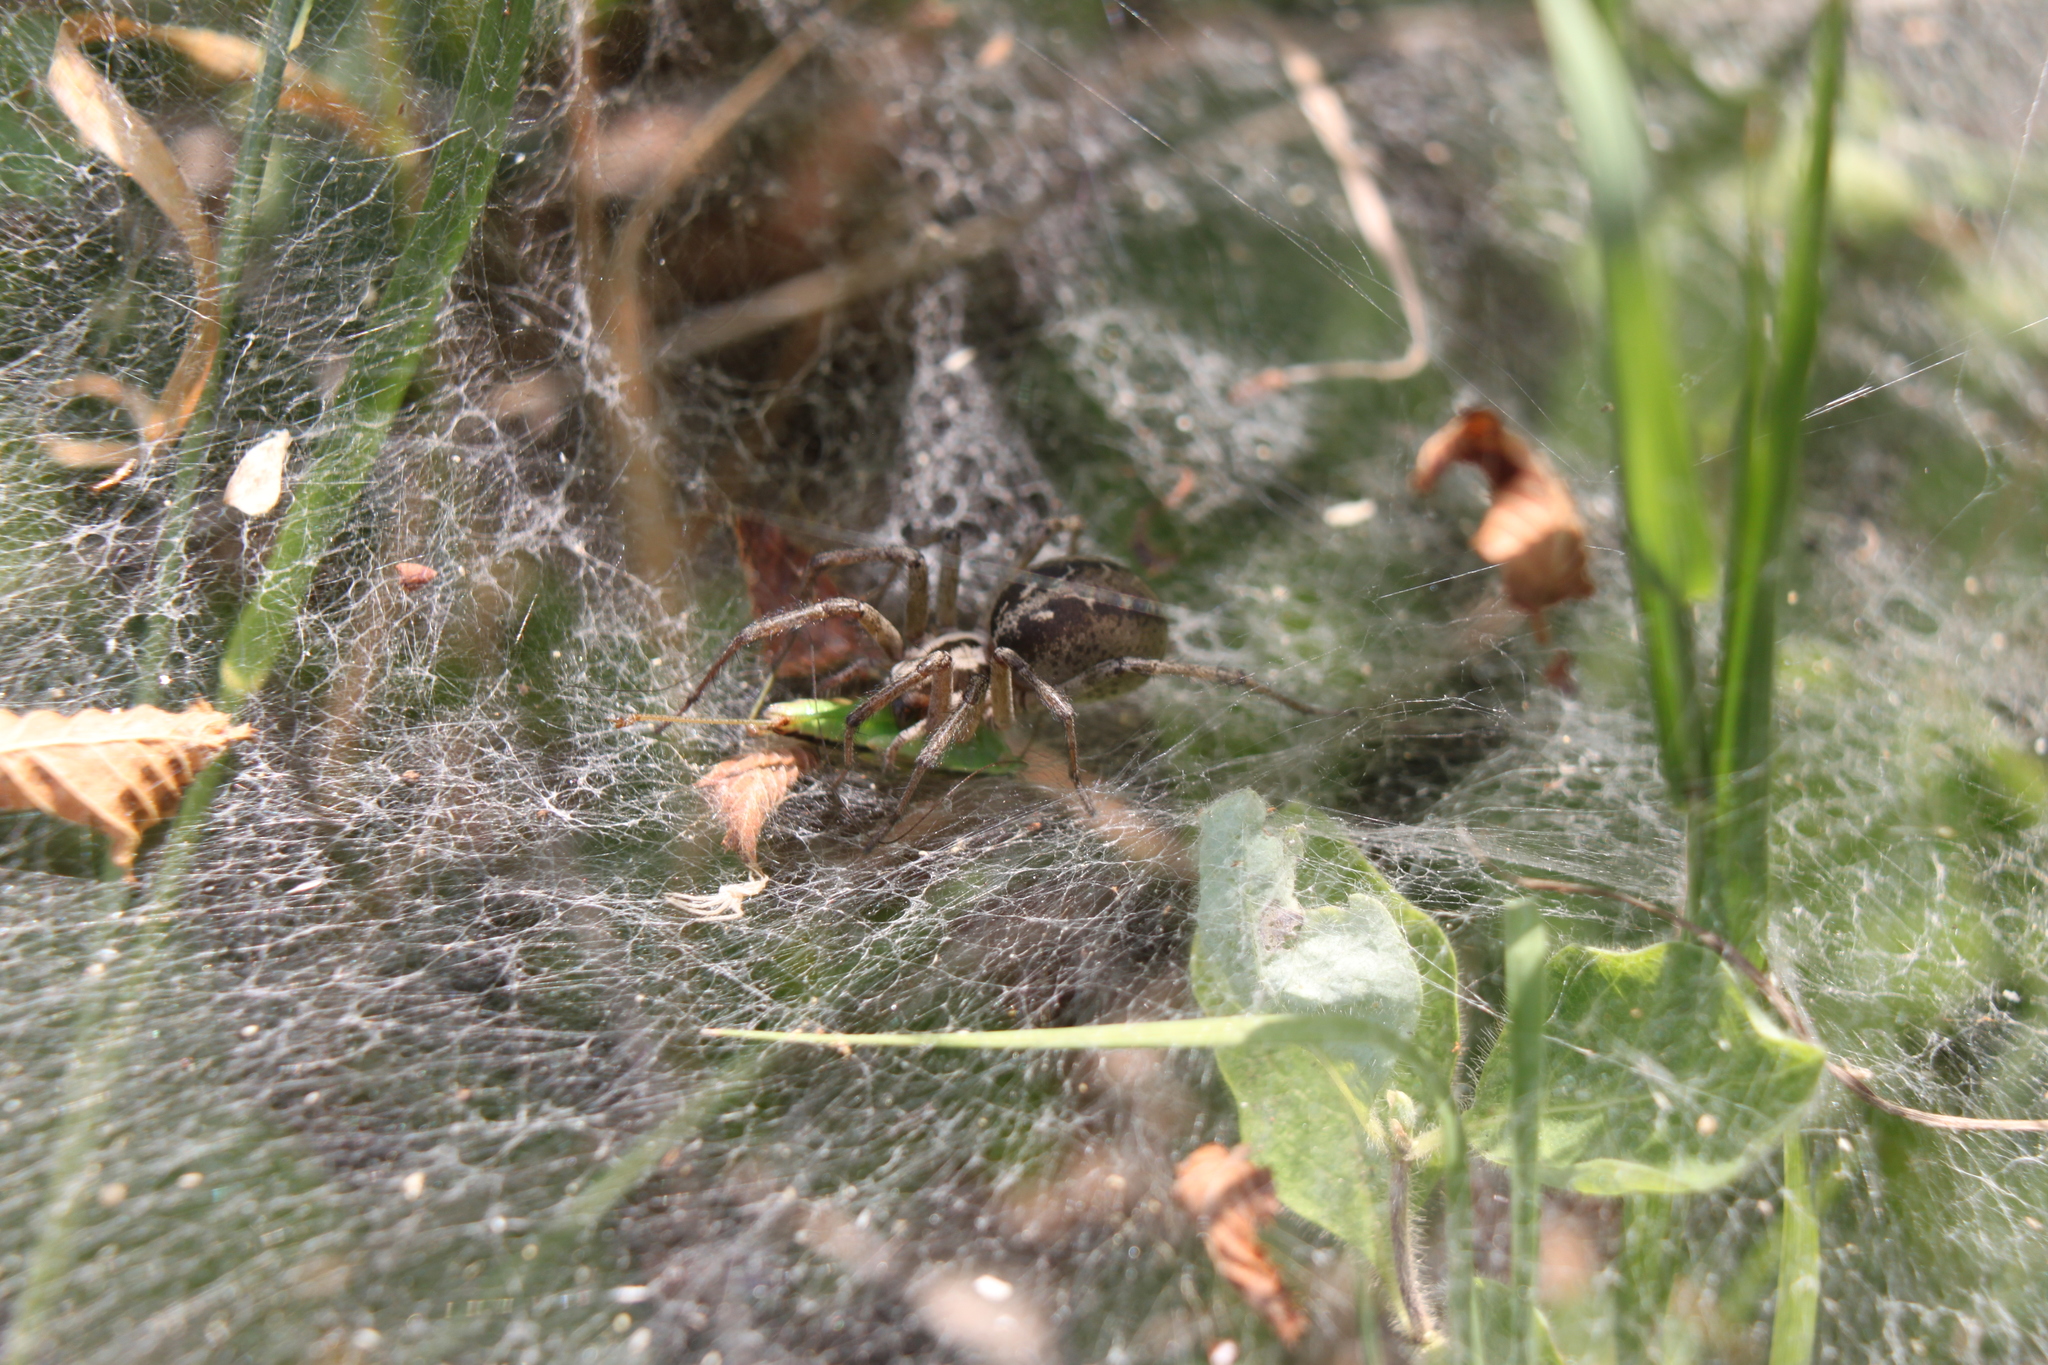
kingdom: Animalia
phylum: Arthropoda
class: Arachnida
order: Araneae
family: Agelenidae
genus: Agelena
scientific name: Agelena labyrinthica
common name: Labyrinth spider
